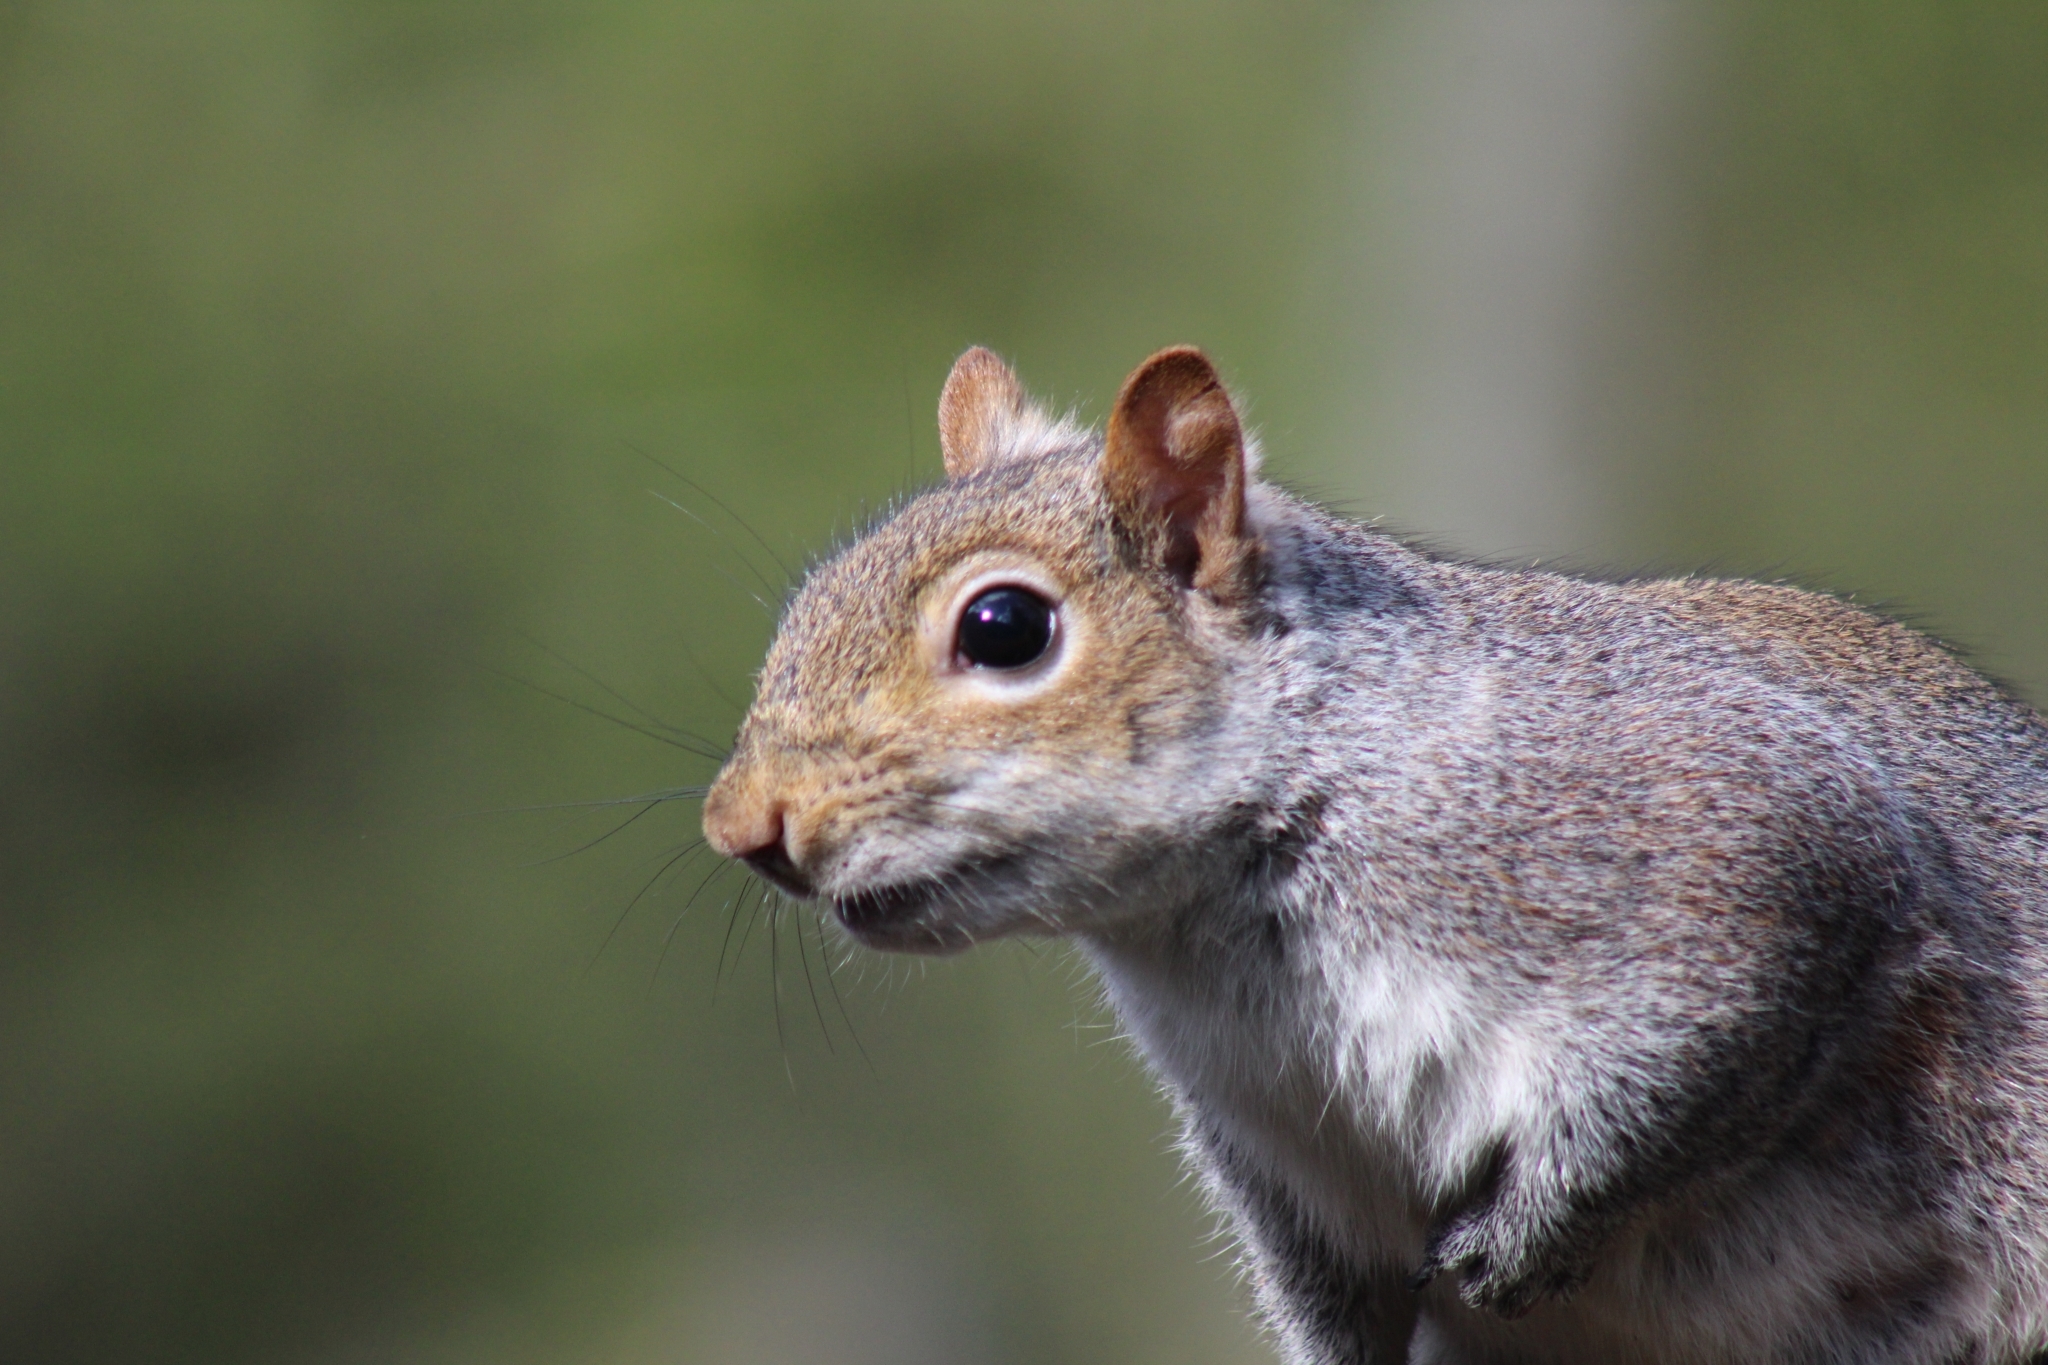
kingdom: Animalia
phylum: Chordata
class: Mammalia
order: Rodentia
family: Sciuridae
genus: Sciurus
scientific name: Sciurus carolinensis
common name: Eastern gray squirrel
